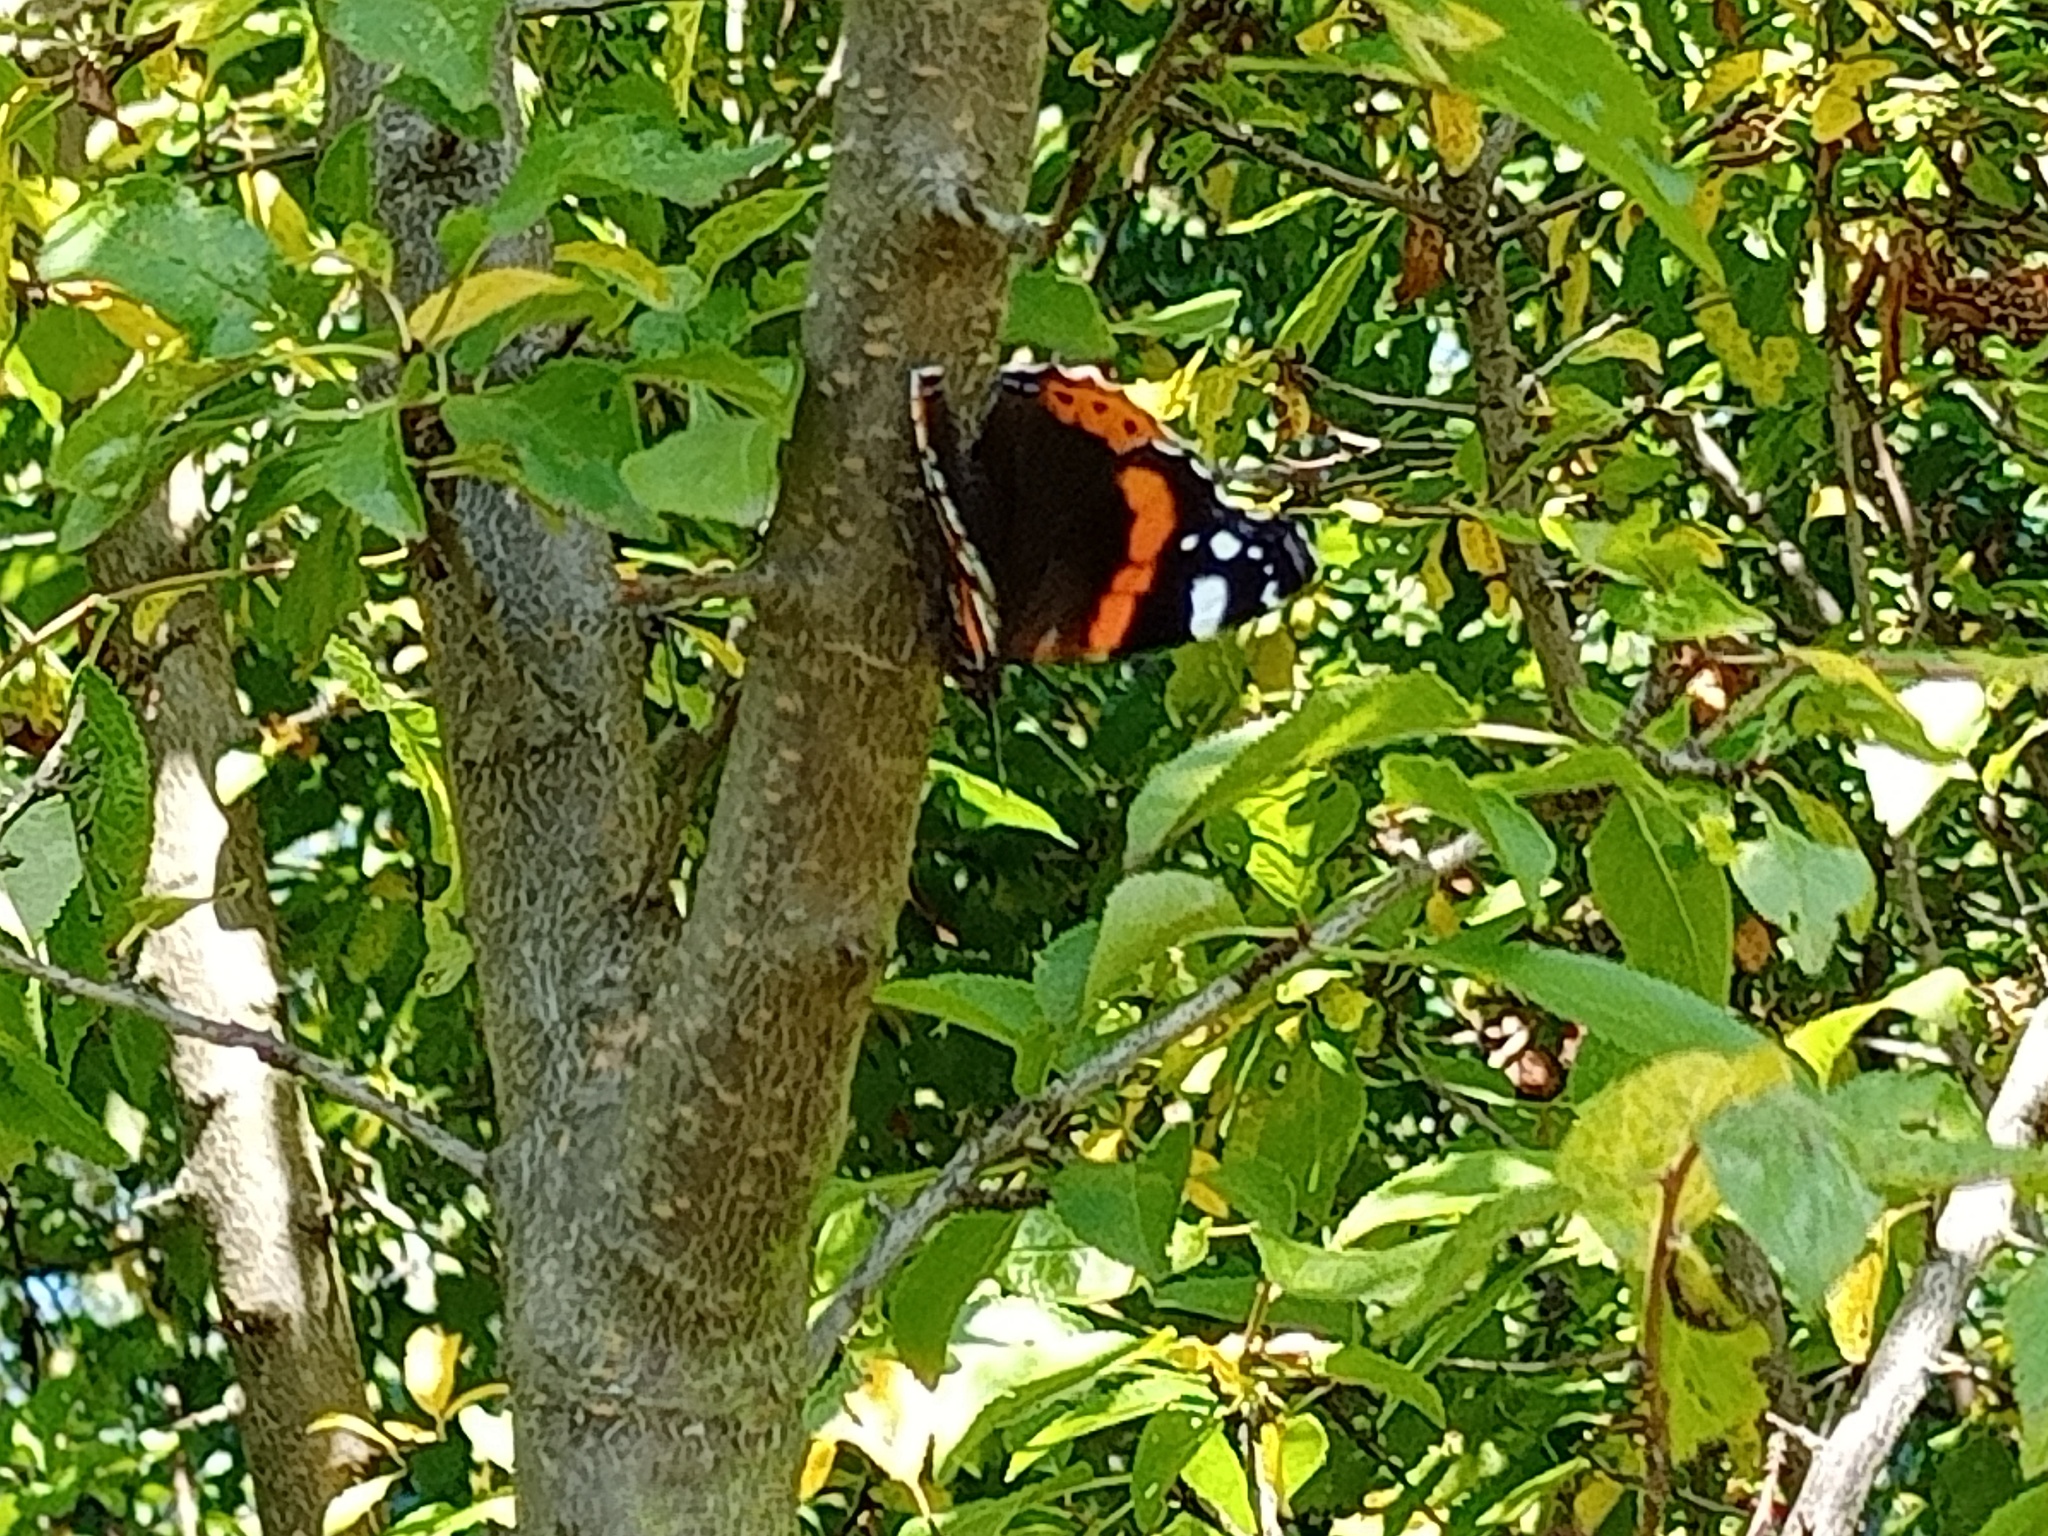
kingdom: Animalia
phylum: Arthropoda
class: Insecta
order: Lepidoptera
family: Nymphalidae
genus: Vanessa
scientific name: Vanessa atalanta
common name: Red admiral
